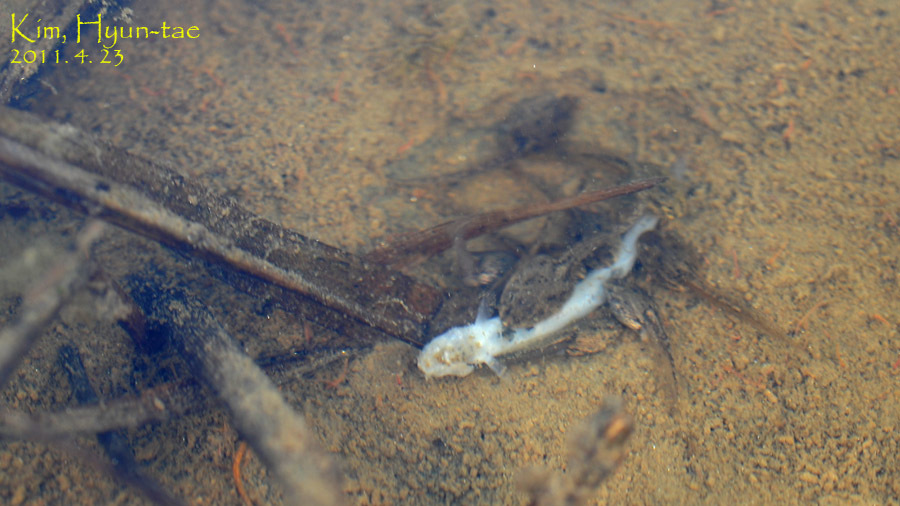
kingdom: Animalia
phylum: Chordata
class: Amphibia
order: Anura
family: Ranidae
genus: Rana
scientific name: Rana coreana
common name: Korean brown frog
